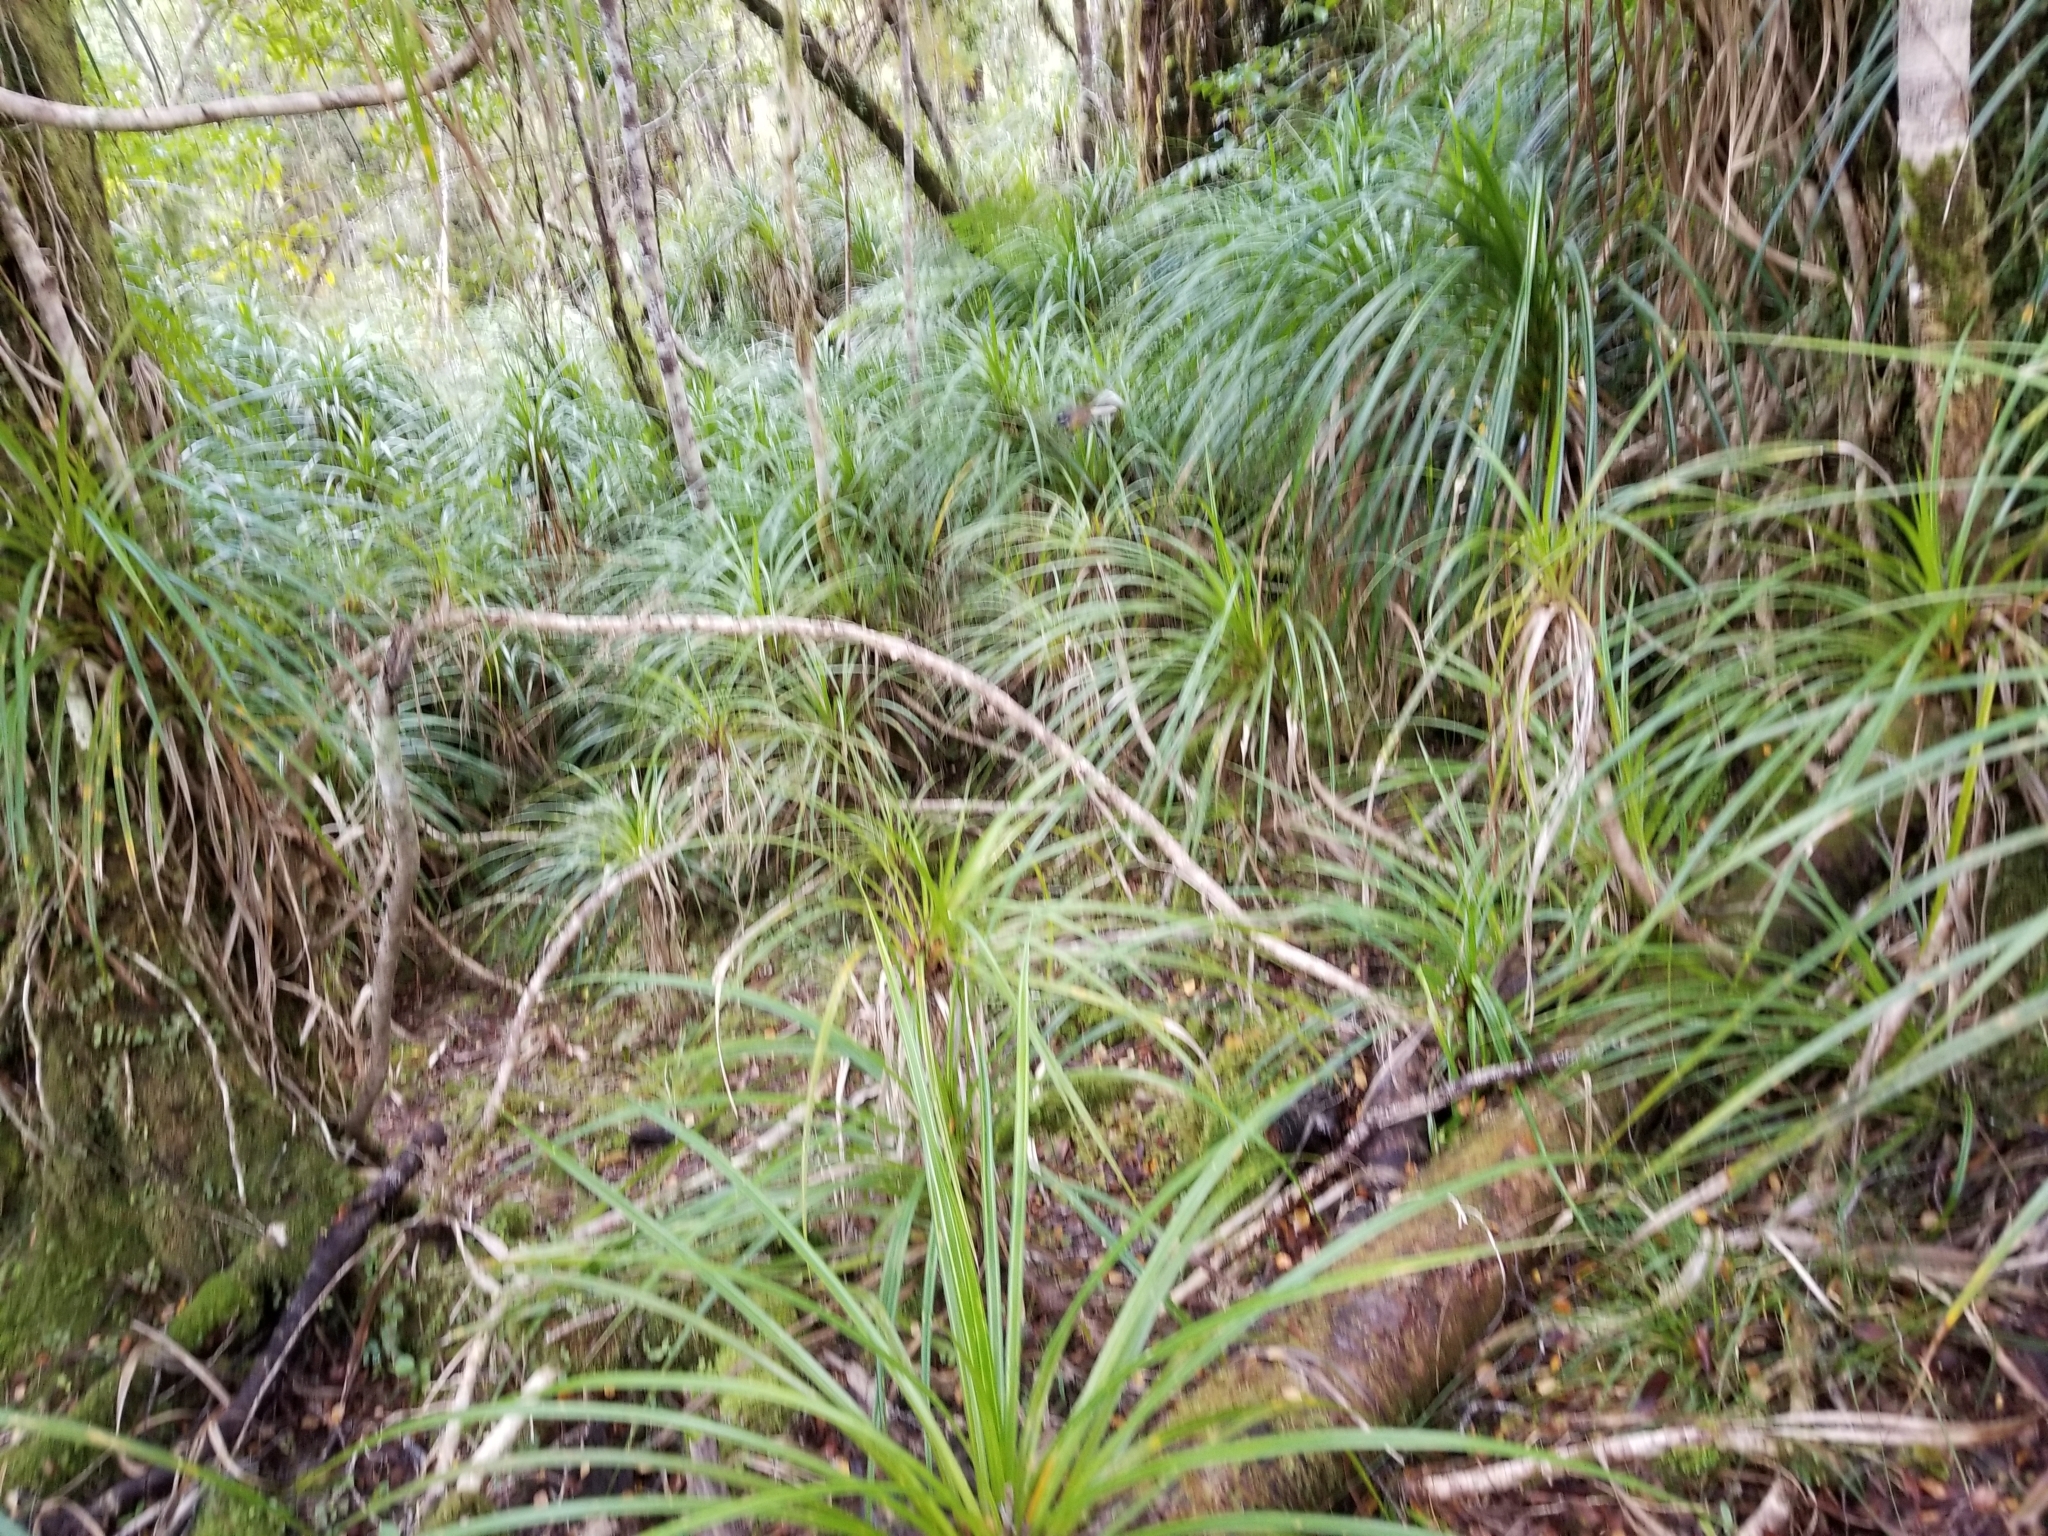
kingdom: Animalia
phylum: Chordata
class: Aves
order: Passeriformes
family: Rhipiduridae
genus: Rhipidura
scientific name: Rhipidura fuliginosa
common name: New zealand fantail
